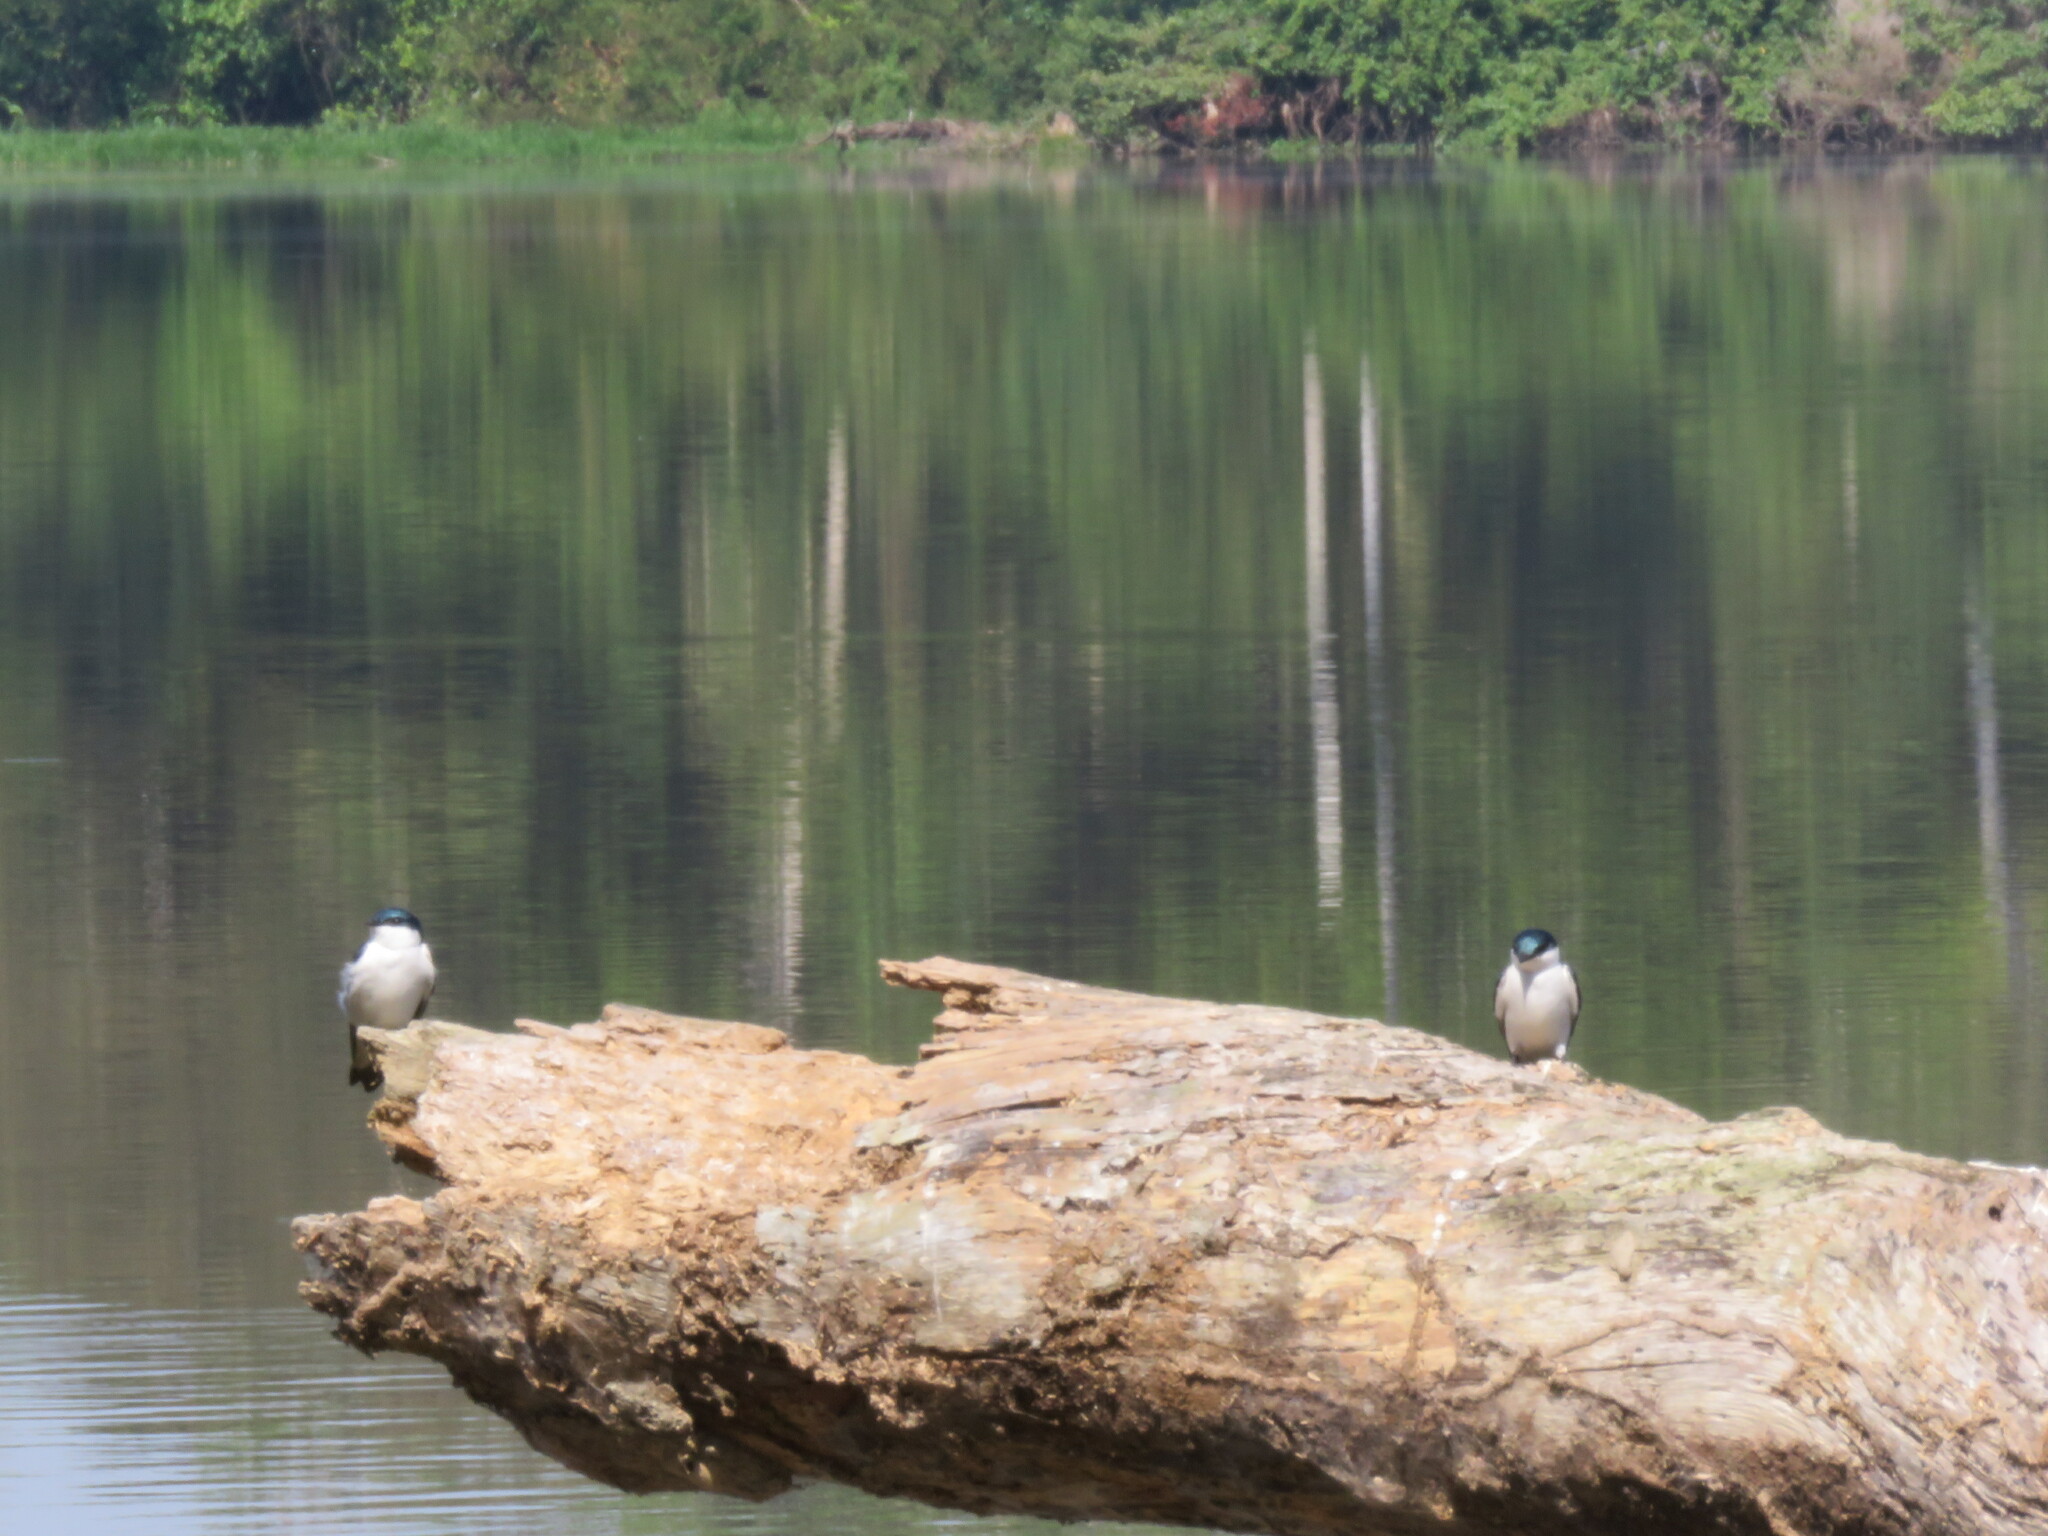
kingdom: Animalia
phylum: Chordata
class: Aves
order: Passeriformes
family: Hirundinidae
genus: Tachycineta
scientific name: Tachycineta albiventer
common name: White-winged swallow
